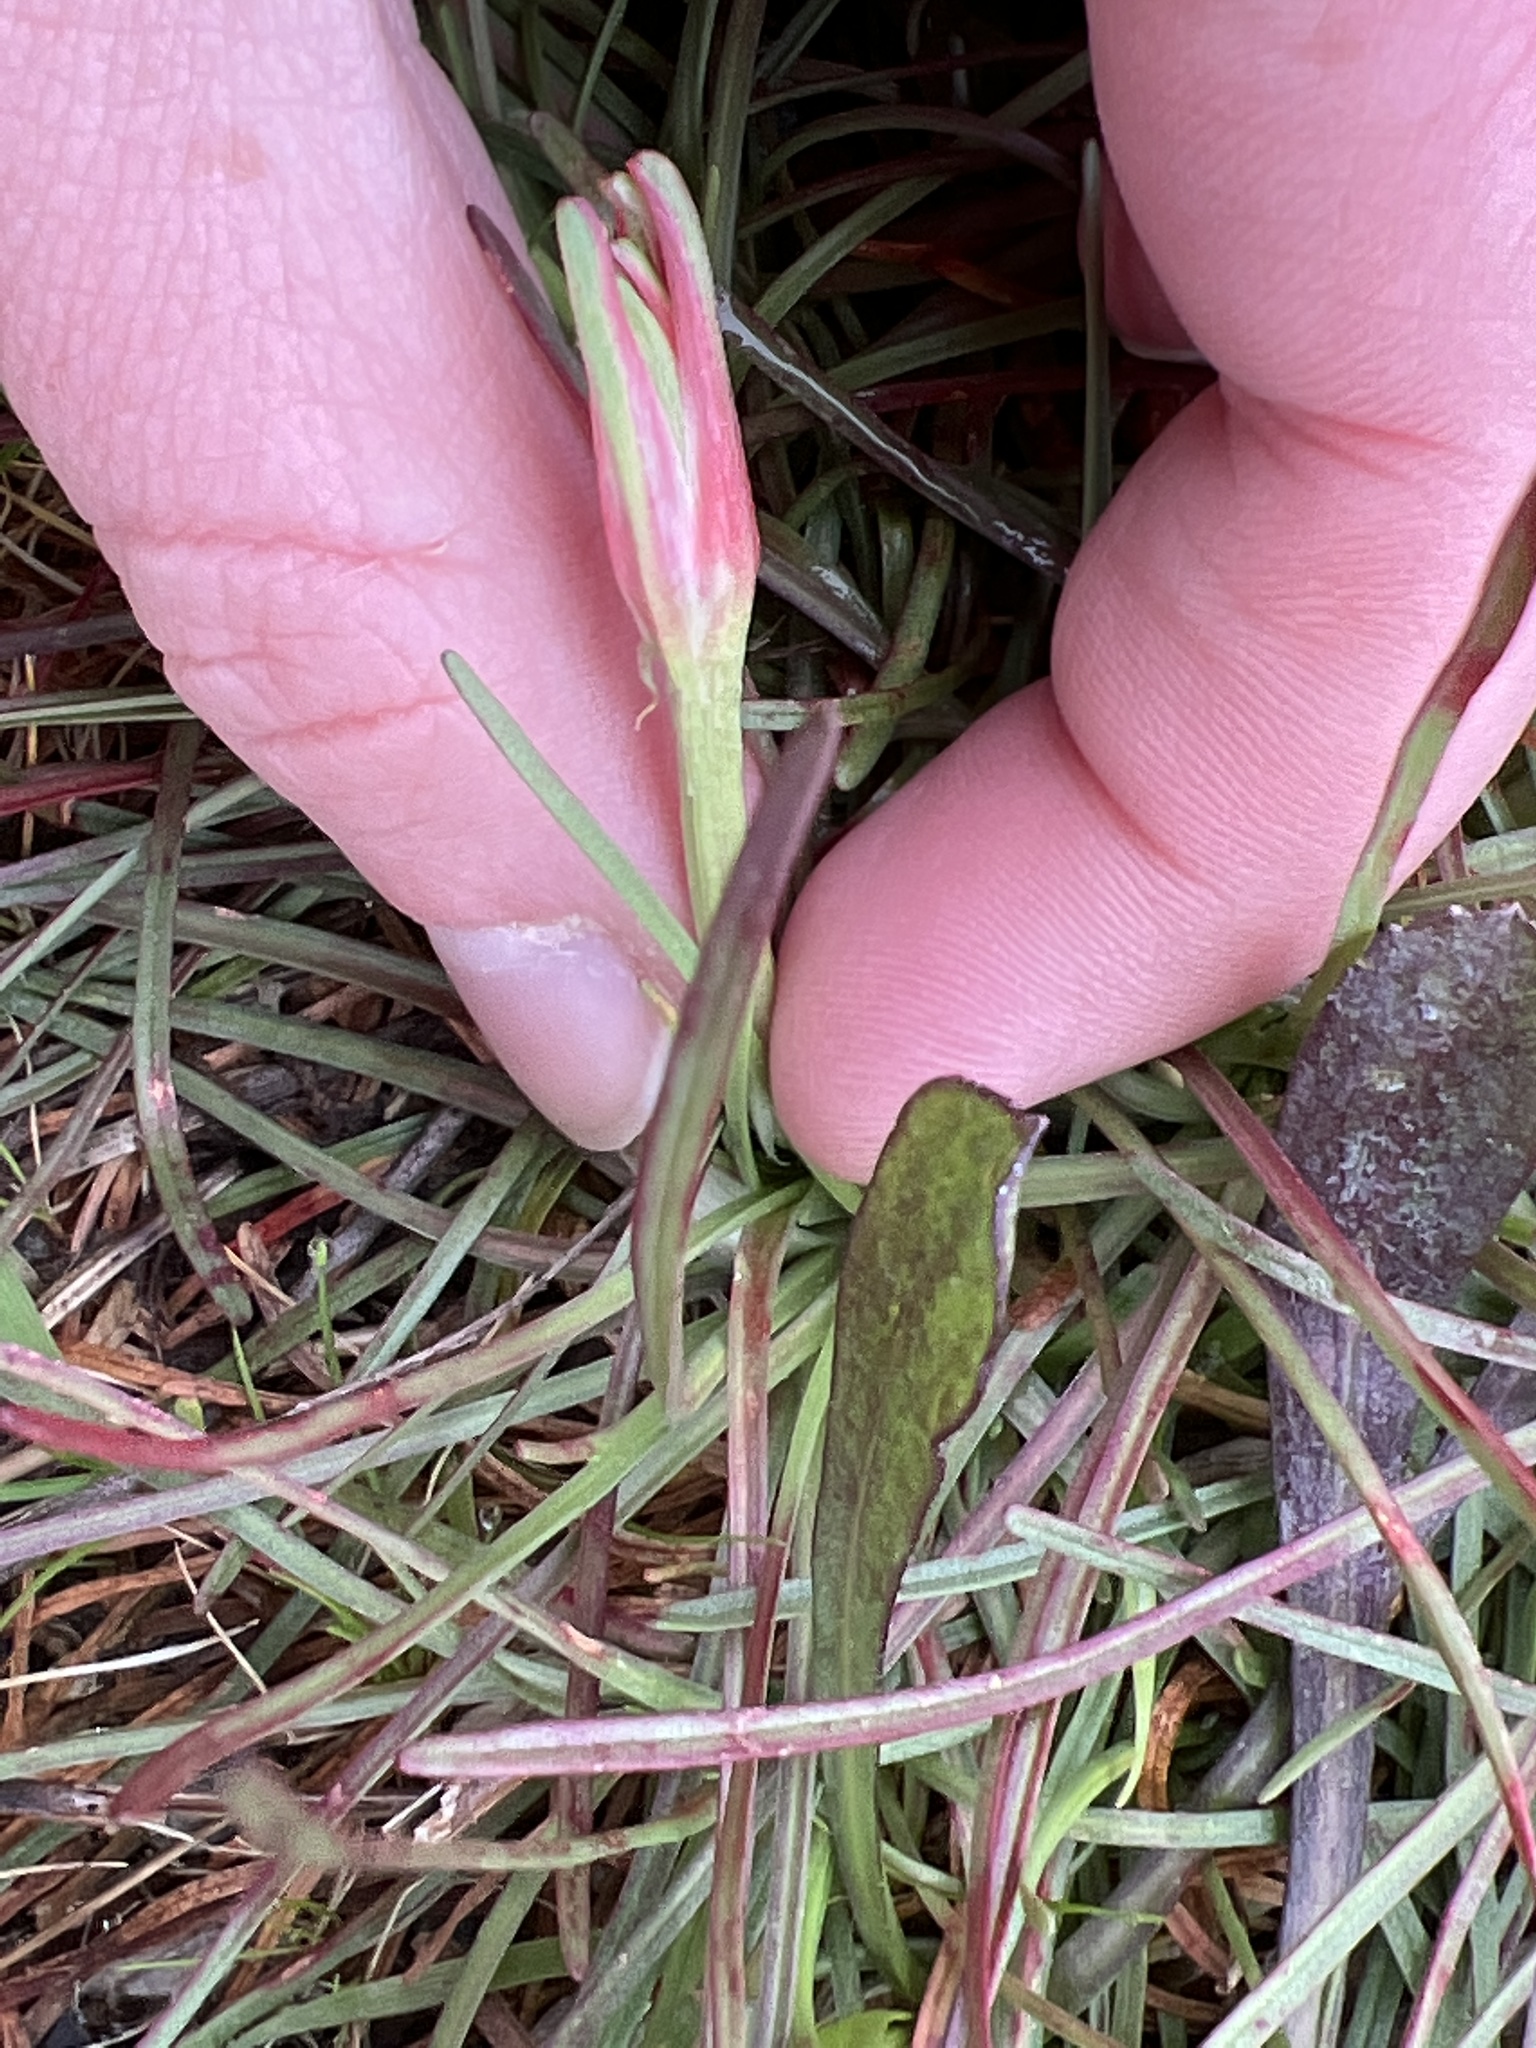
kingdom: Plantae
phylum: Tracheophyta
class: Magnoliopsida
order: Caryophyllales
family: Plumbaginaceae
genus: Armeria
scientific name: Armeria maritima
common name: Thrift
